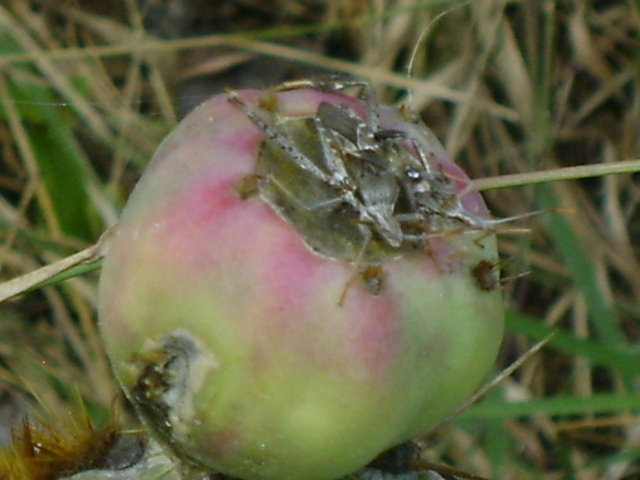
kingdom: Animalia
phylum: Arthropoda
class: Insecta
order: Hemiptera
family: Coreidae
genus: Narnia
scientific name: Narnia femorata
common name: Leaf-footed cactus bug
